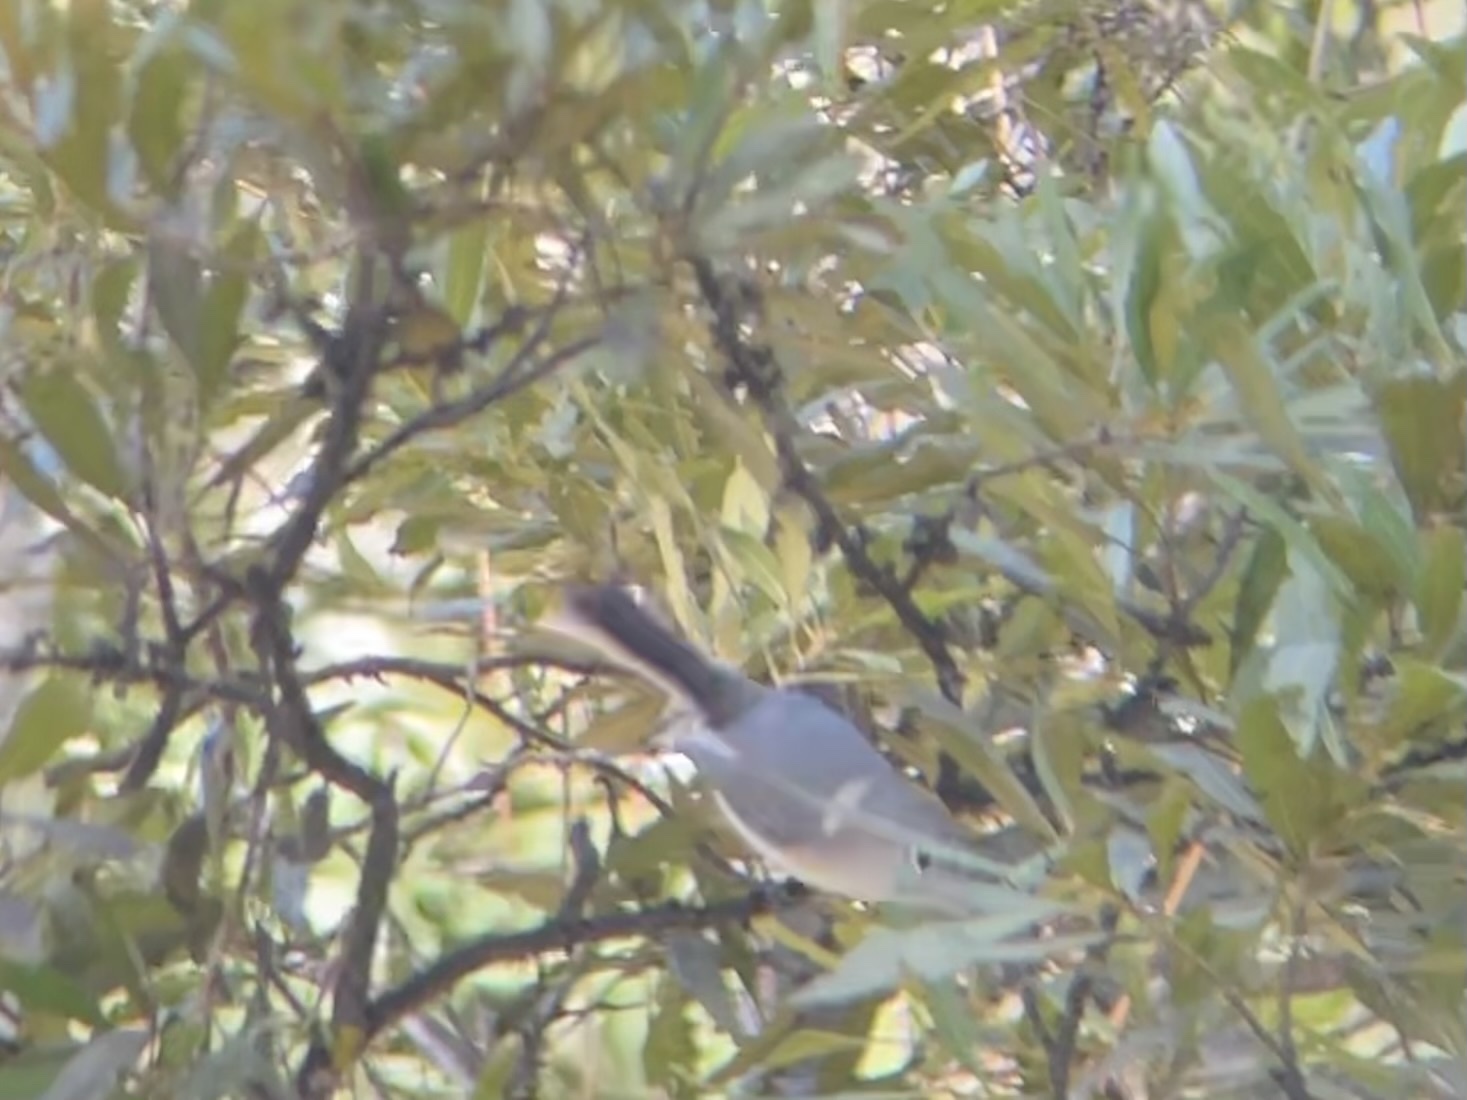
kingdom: Animalia
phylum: Chordata
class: Aves
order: Passeriformes
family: Polioptilidae
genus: Polioptila
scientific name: Polioptila caerulea
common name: Blue-gray gnatcatcher
